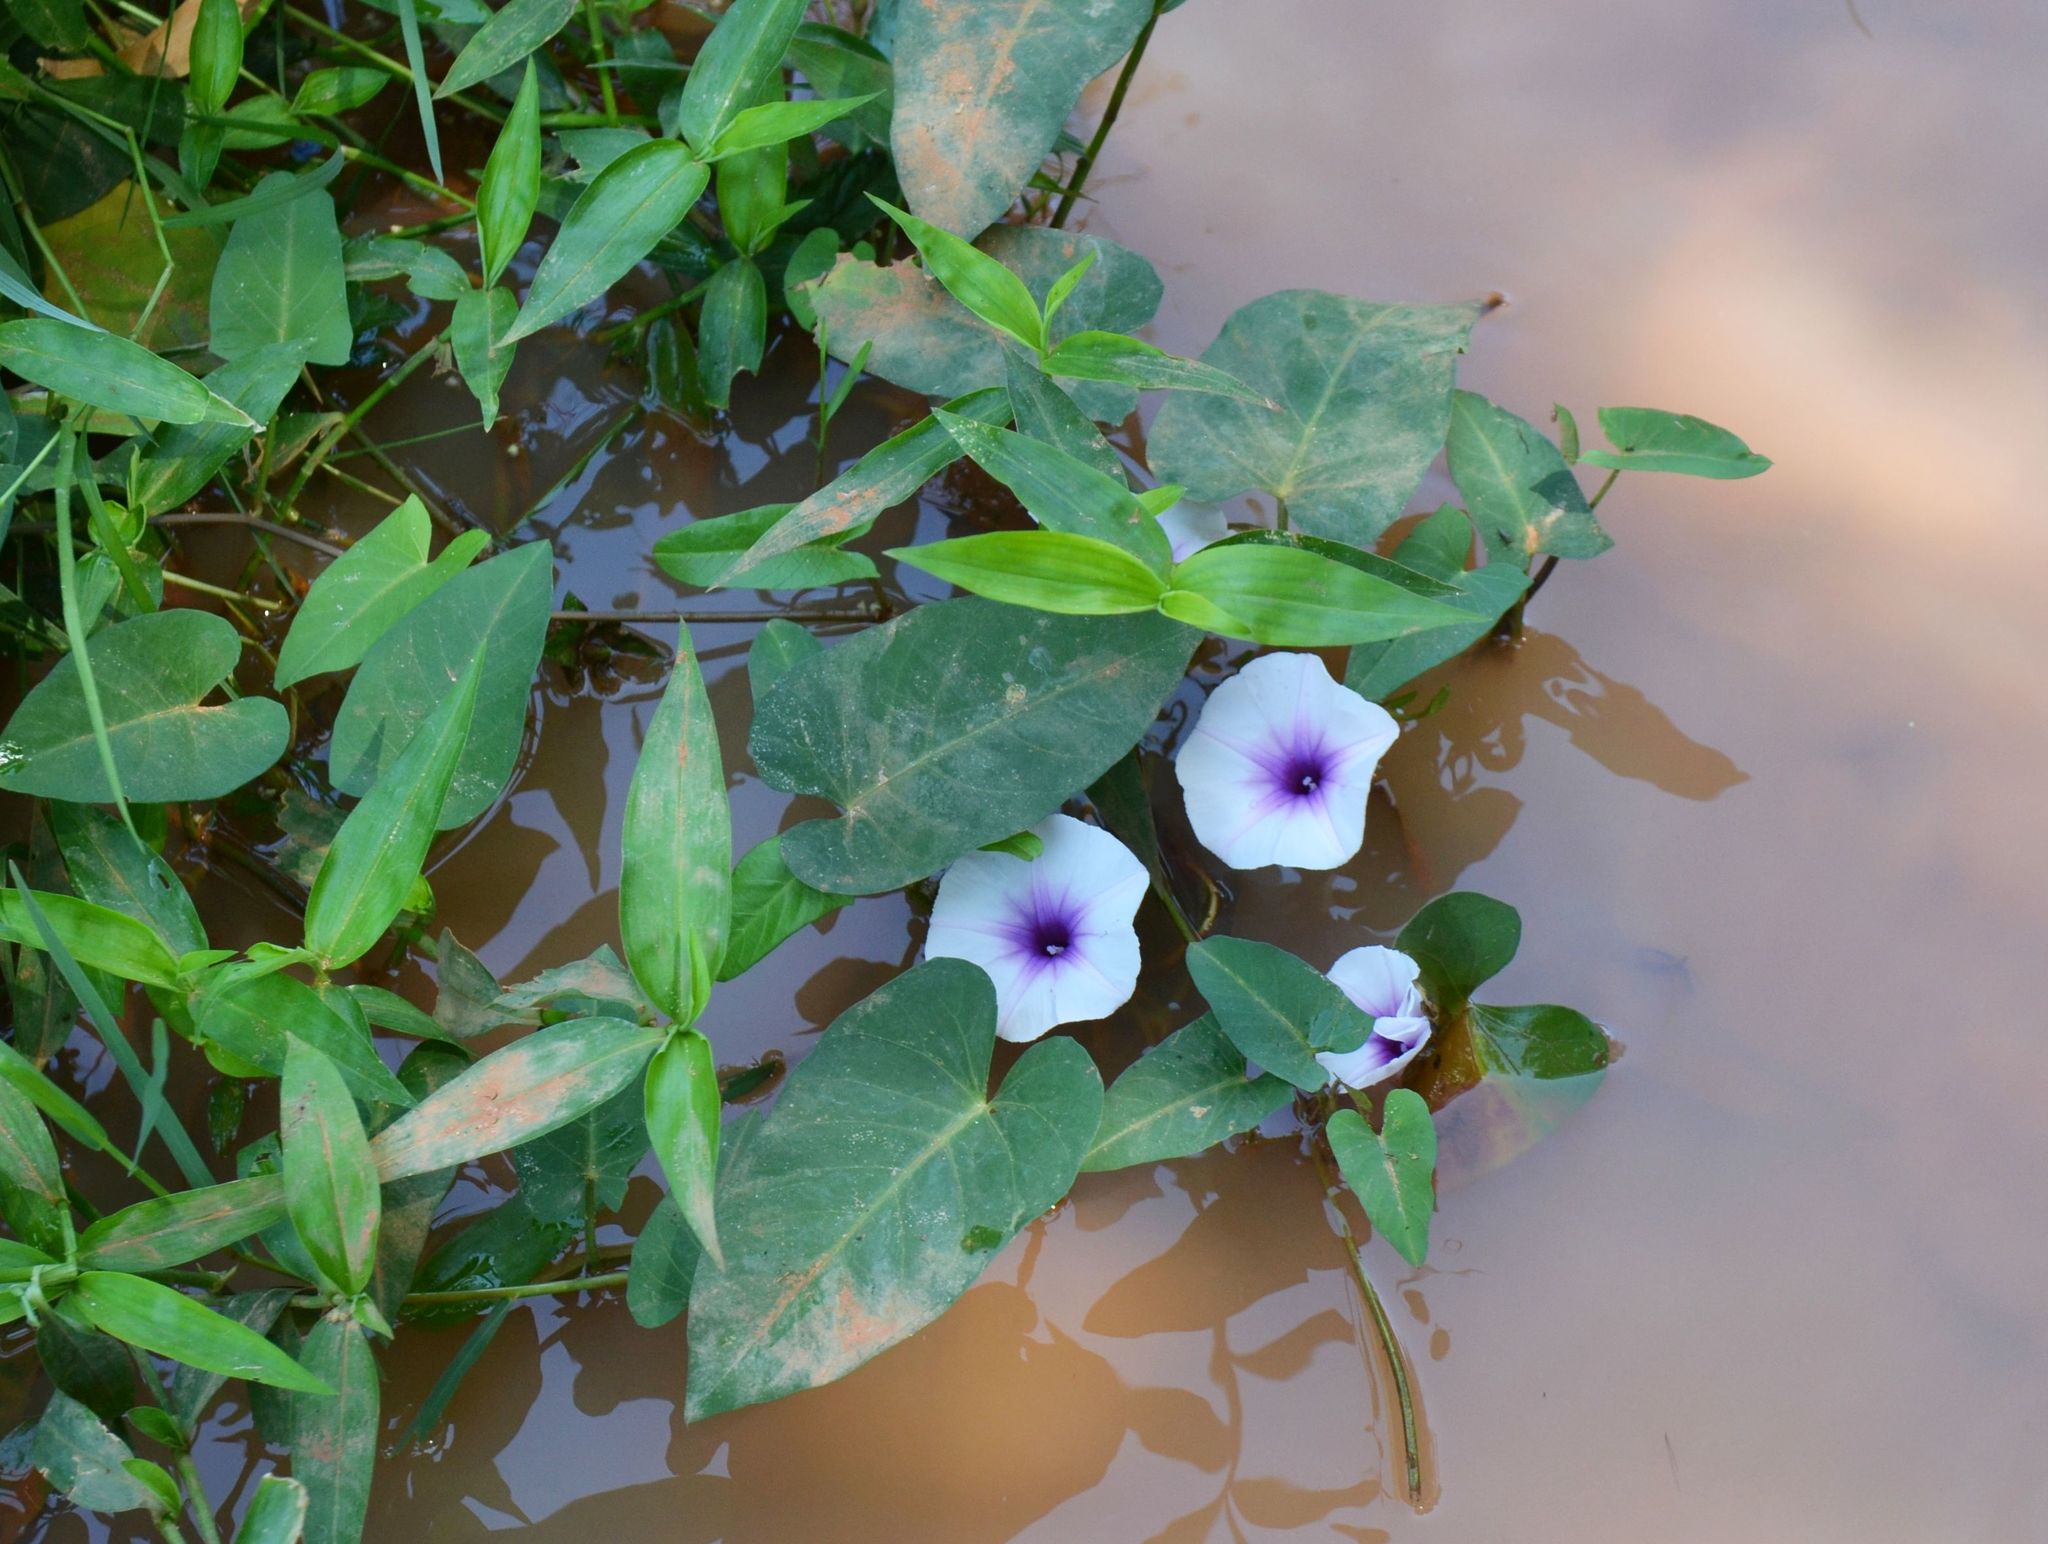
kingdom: Plantae
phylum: Tracheophyta
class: Magnoliopsida
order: Solanales
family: Convolvulaceae
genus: Ipomoea
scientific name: Ipomoea aquatica
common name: Swamp morning-glory
